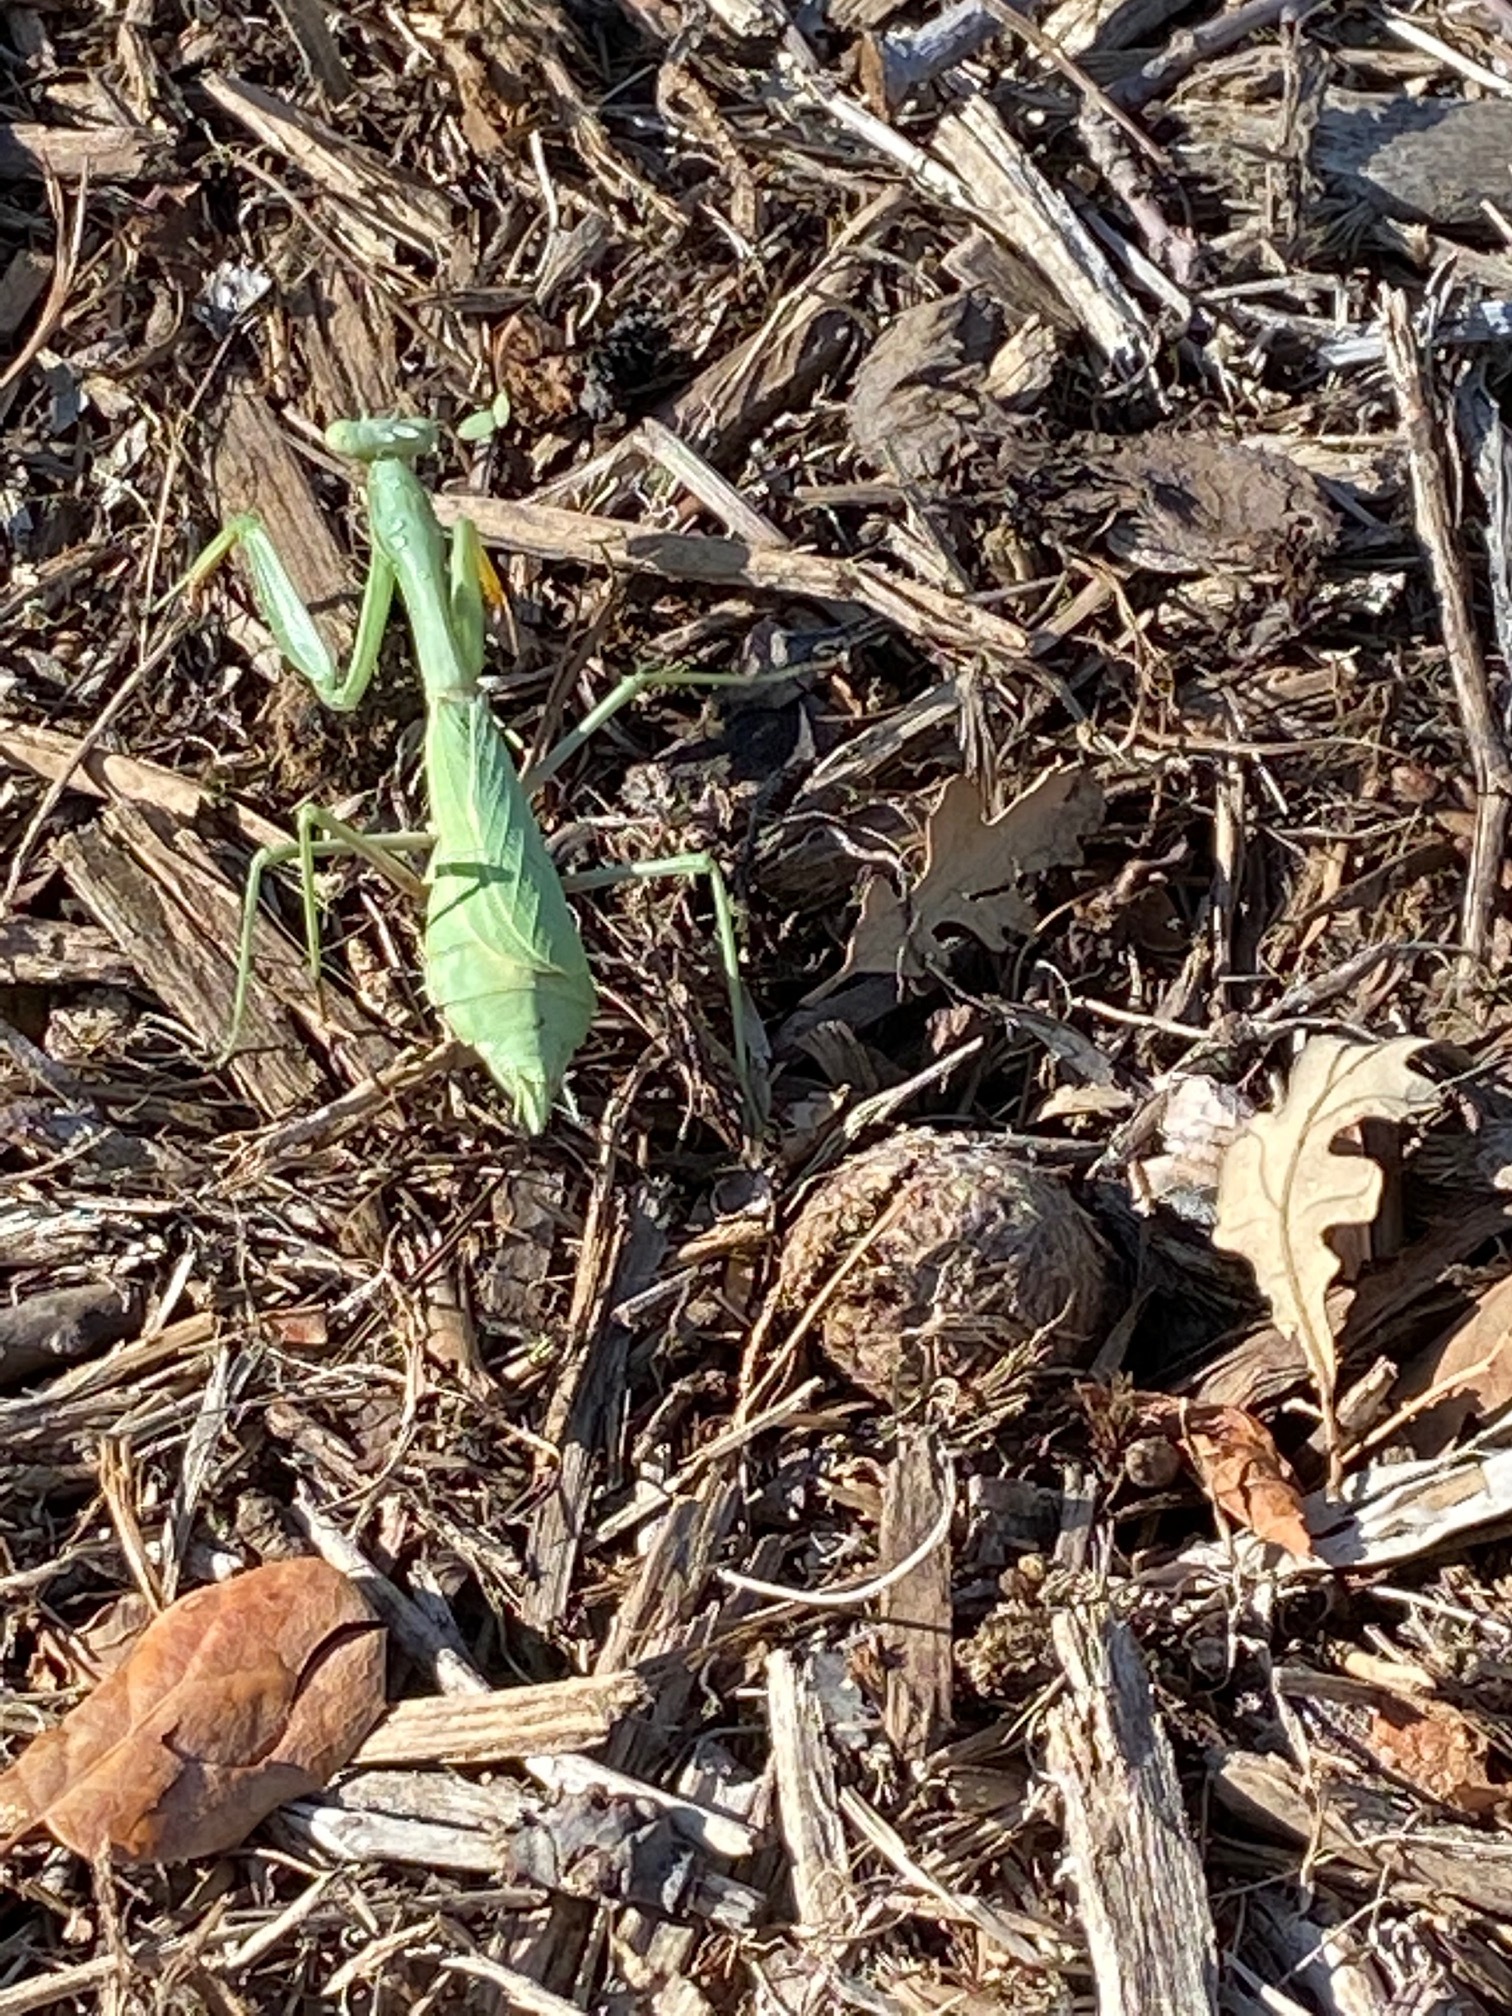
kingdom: Animalia
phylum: Arthropoda
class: Insecta
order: Mantodea
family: Mantidae
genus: Stagmomantis
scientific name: Stagmomantis limbata
